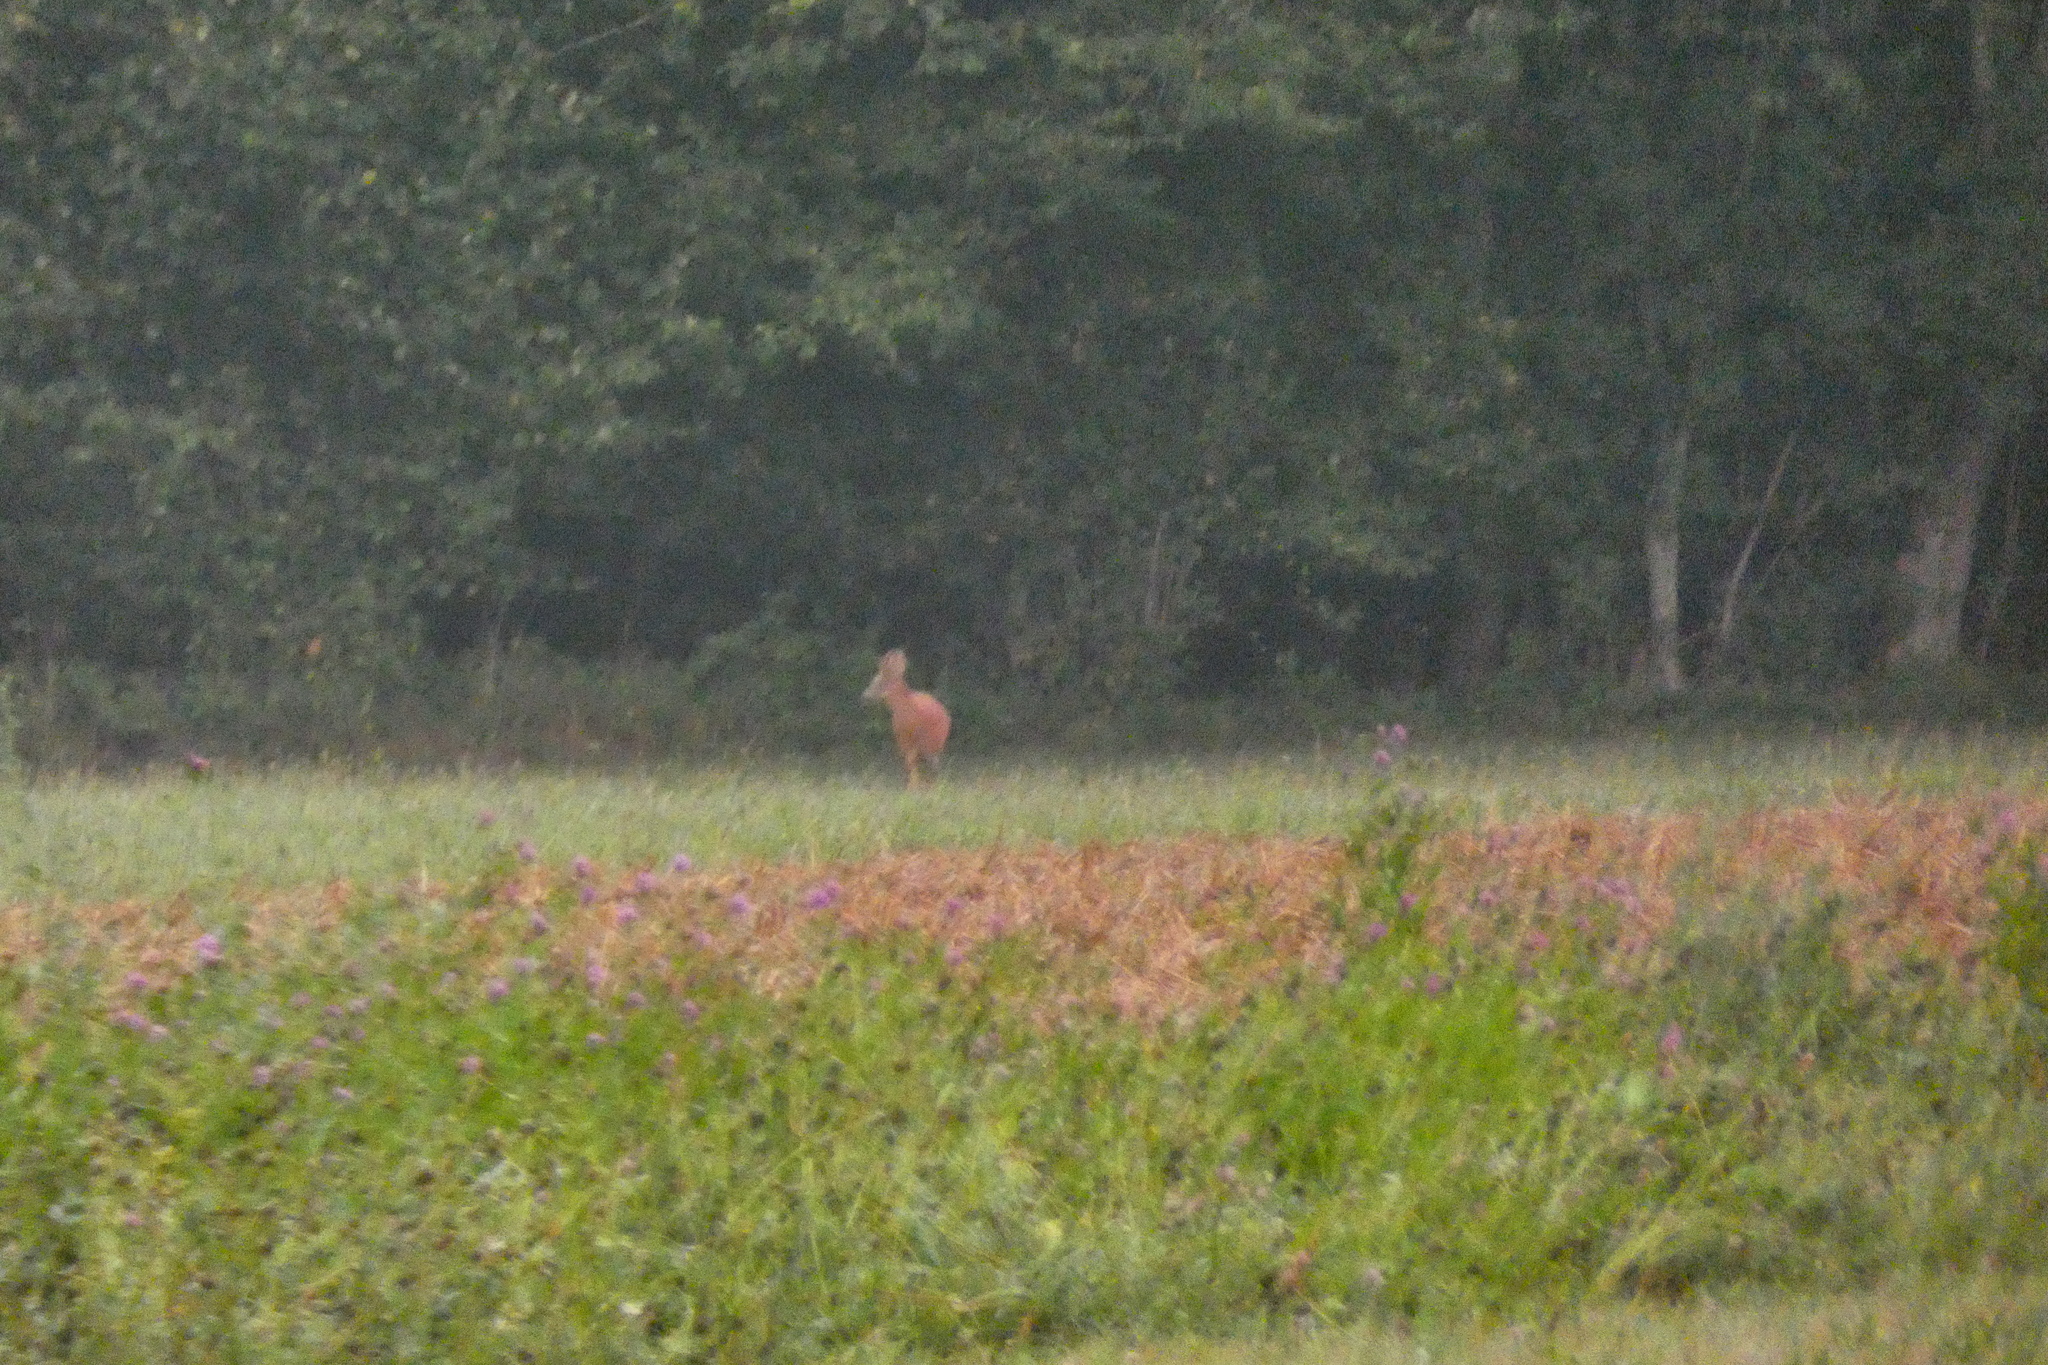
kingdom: Animalia
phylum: Chordata
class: Mammalia
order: Artiodactyla
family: Cervidae
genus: Capreolus
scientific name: Capreolus capreolus
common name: Western roe deer
